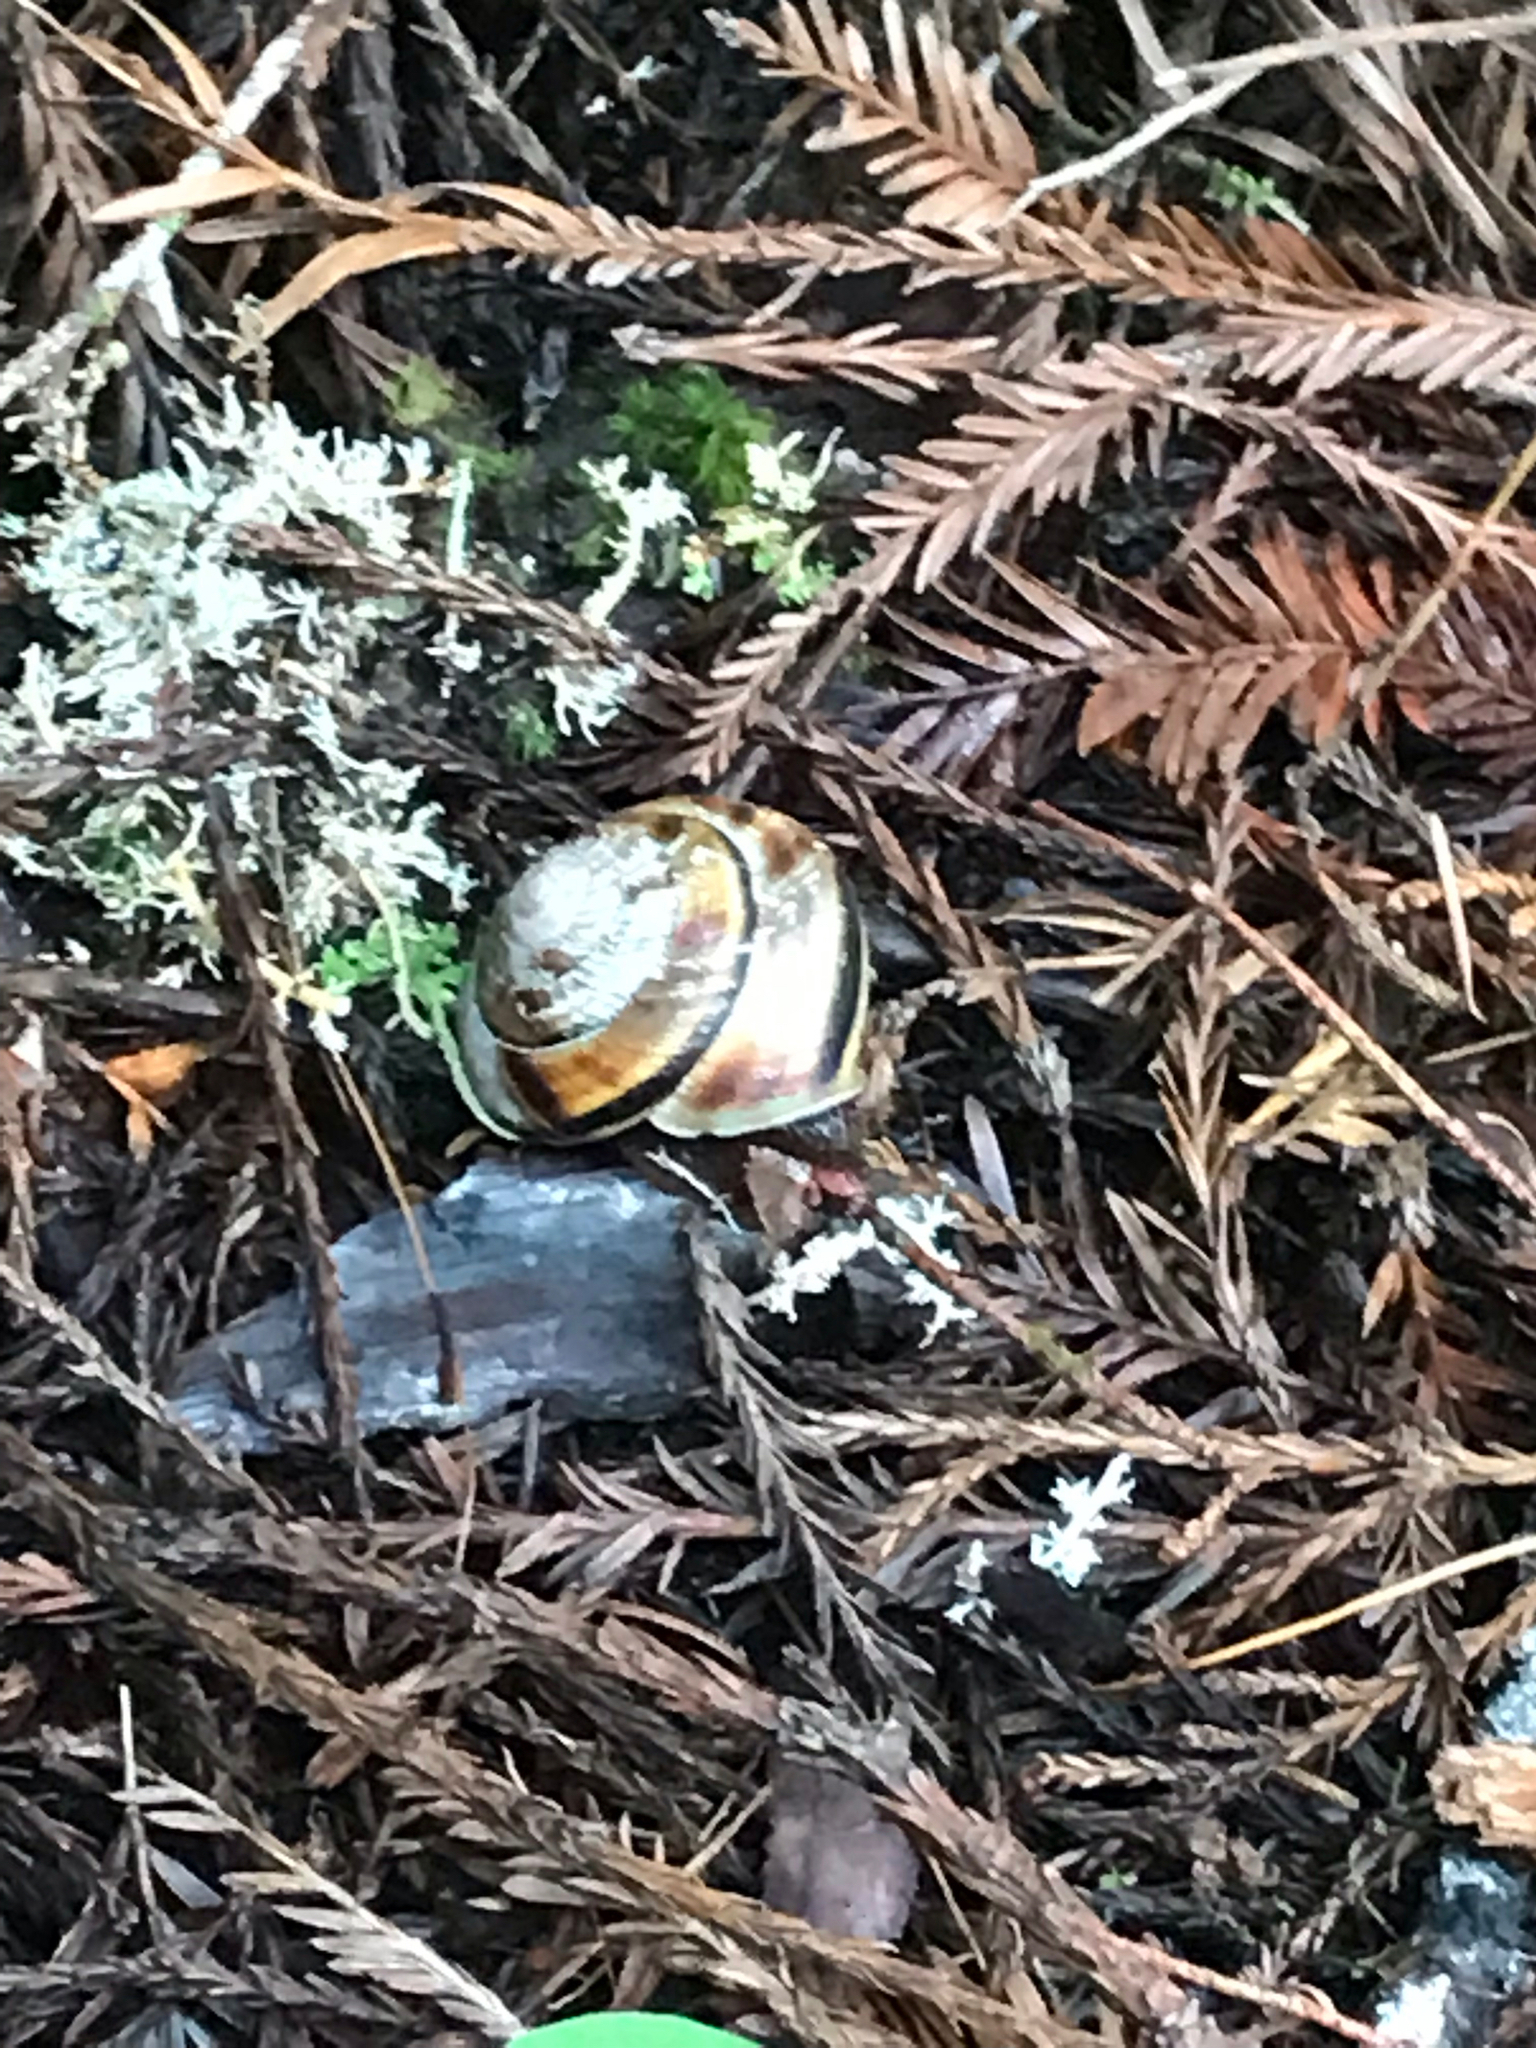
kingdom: Animalia
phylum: Mollusca
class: Gastropoda
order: Stylommatophora
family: Xanthonychidae
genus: Monadenia
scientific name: Monadenia infumata
